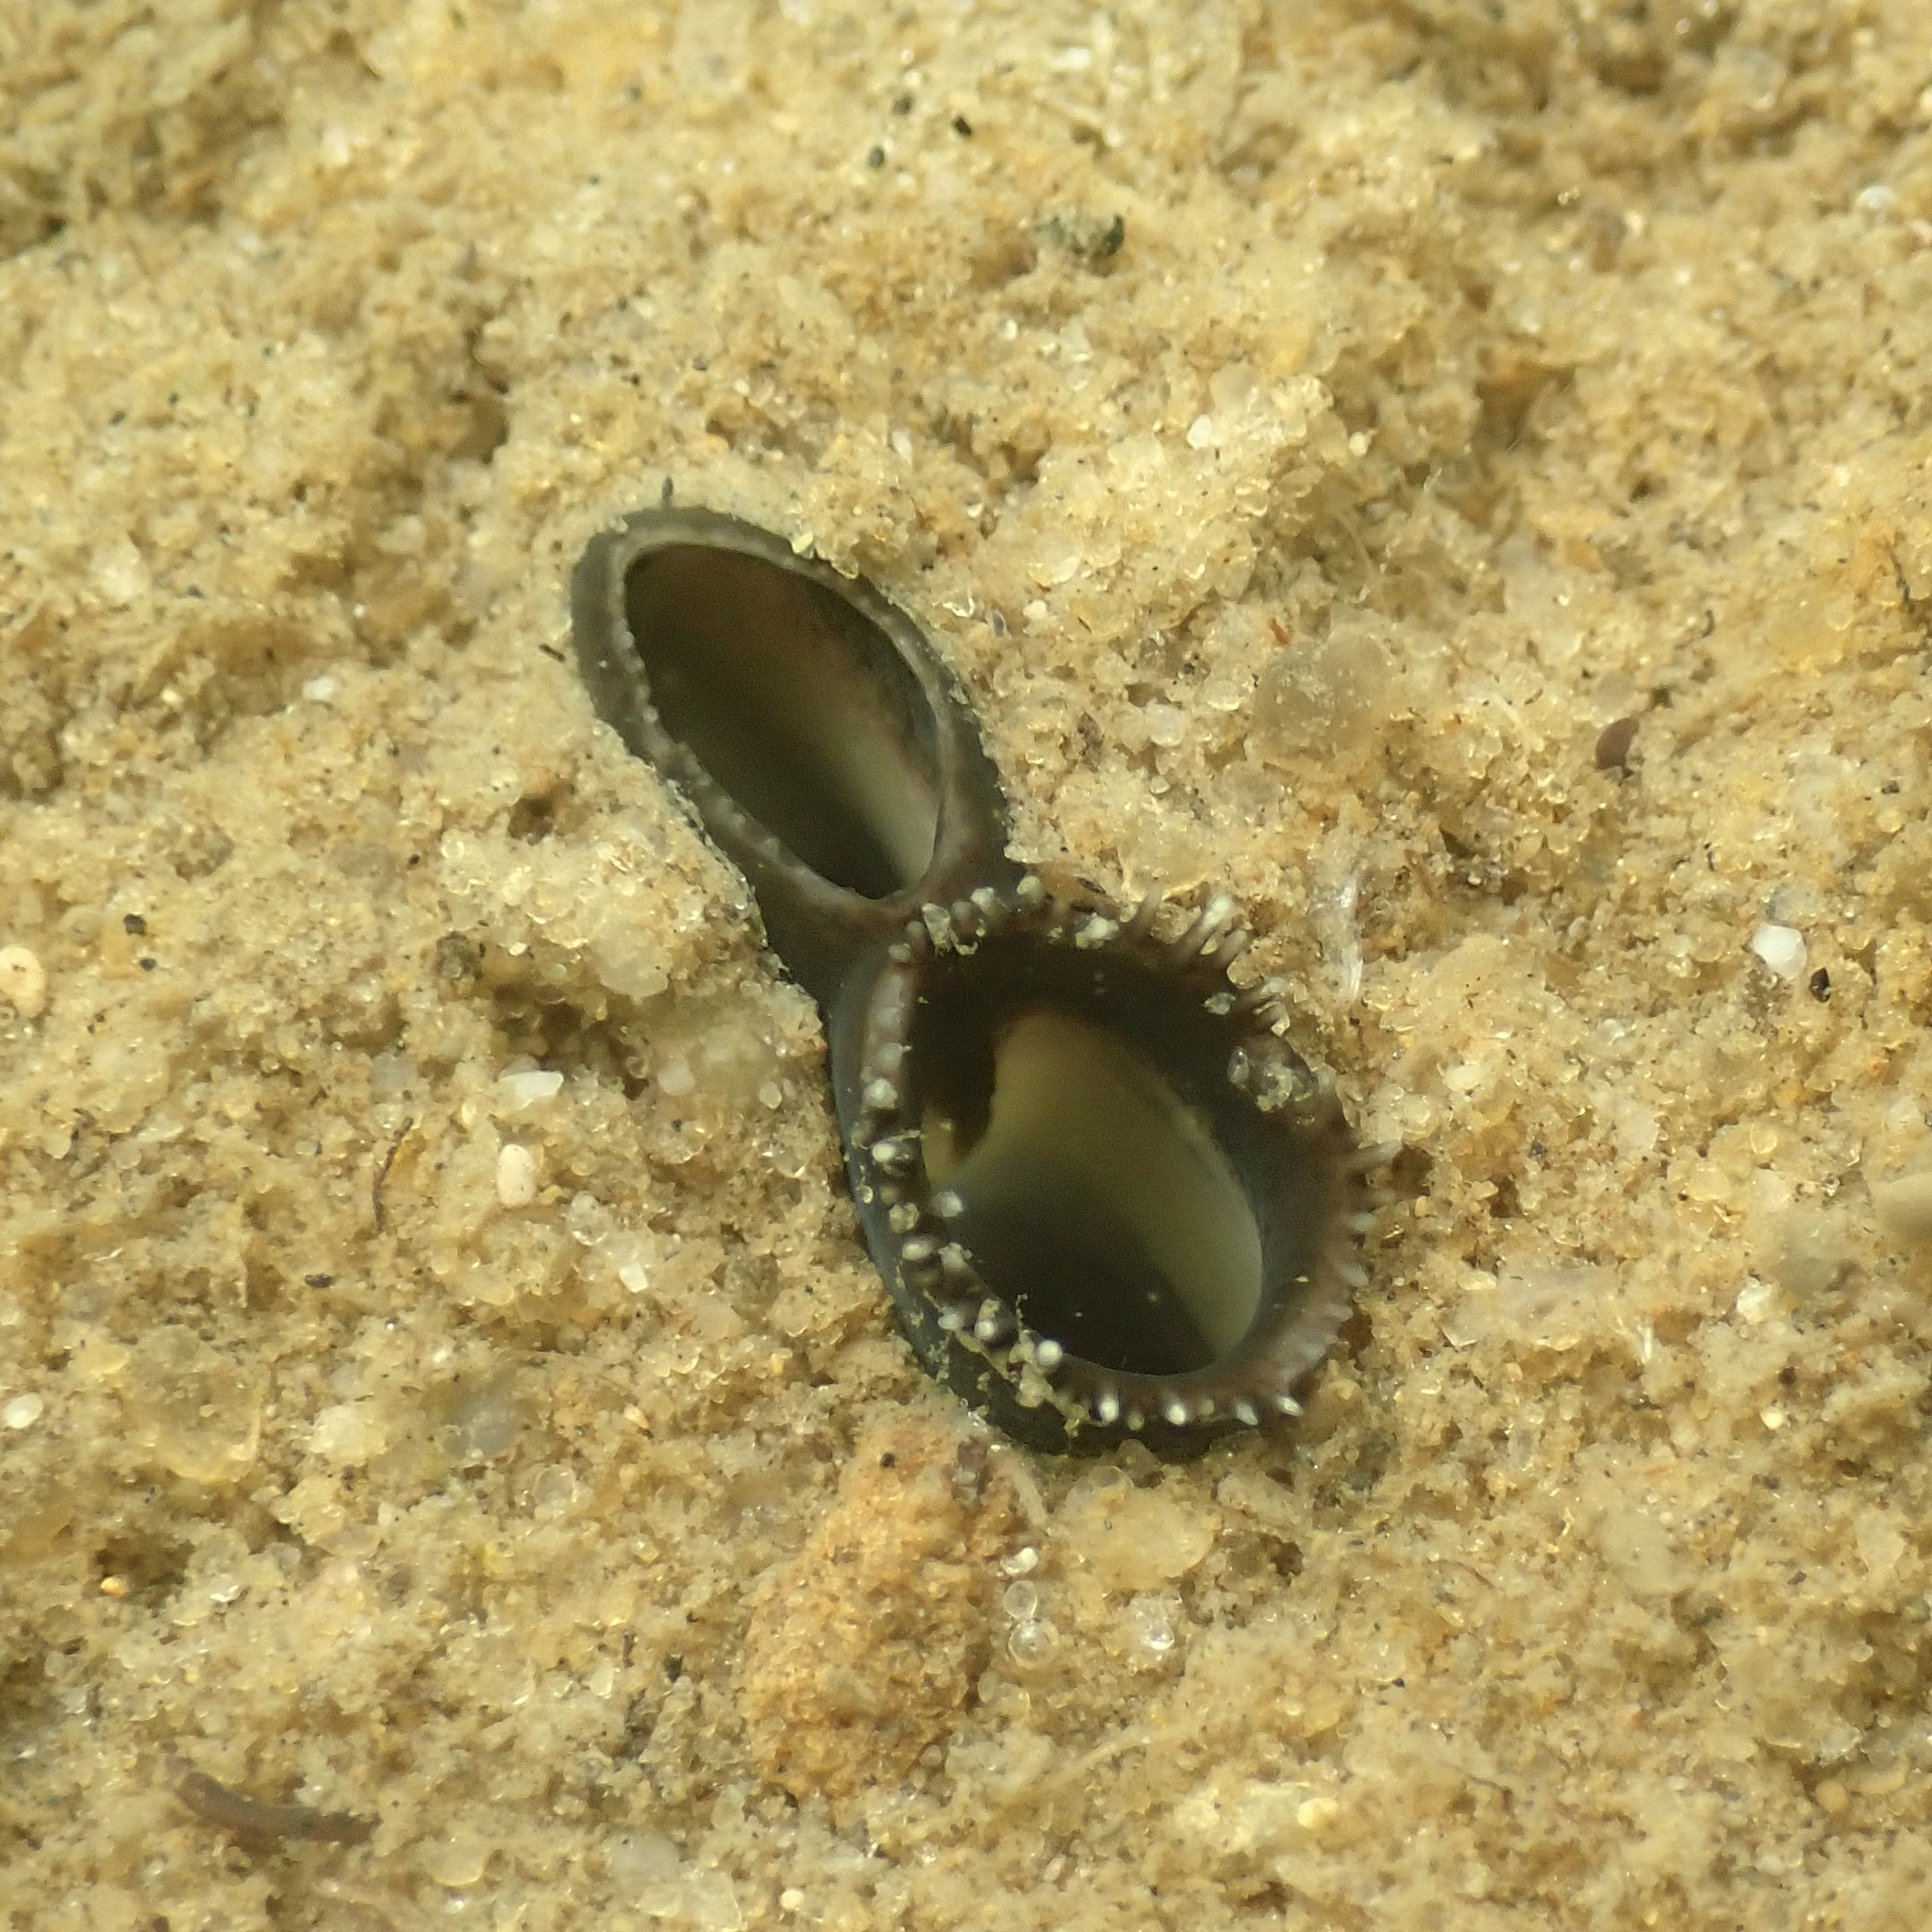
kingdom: Animalia
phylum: Mollusca
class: Bivalvia
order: Venerida
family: Veneridae
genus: Mercenaria
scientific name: Mercenaria mercenaria
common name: American hard-shelled clam
